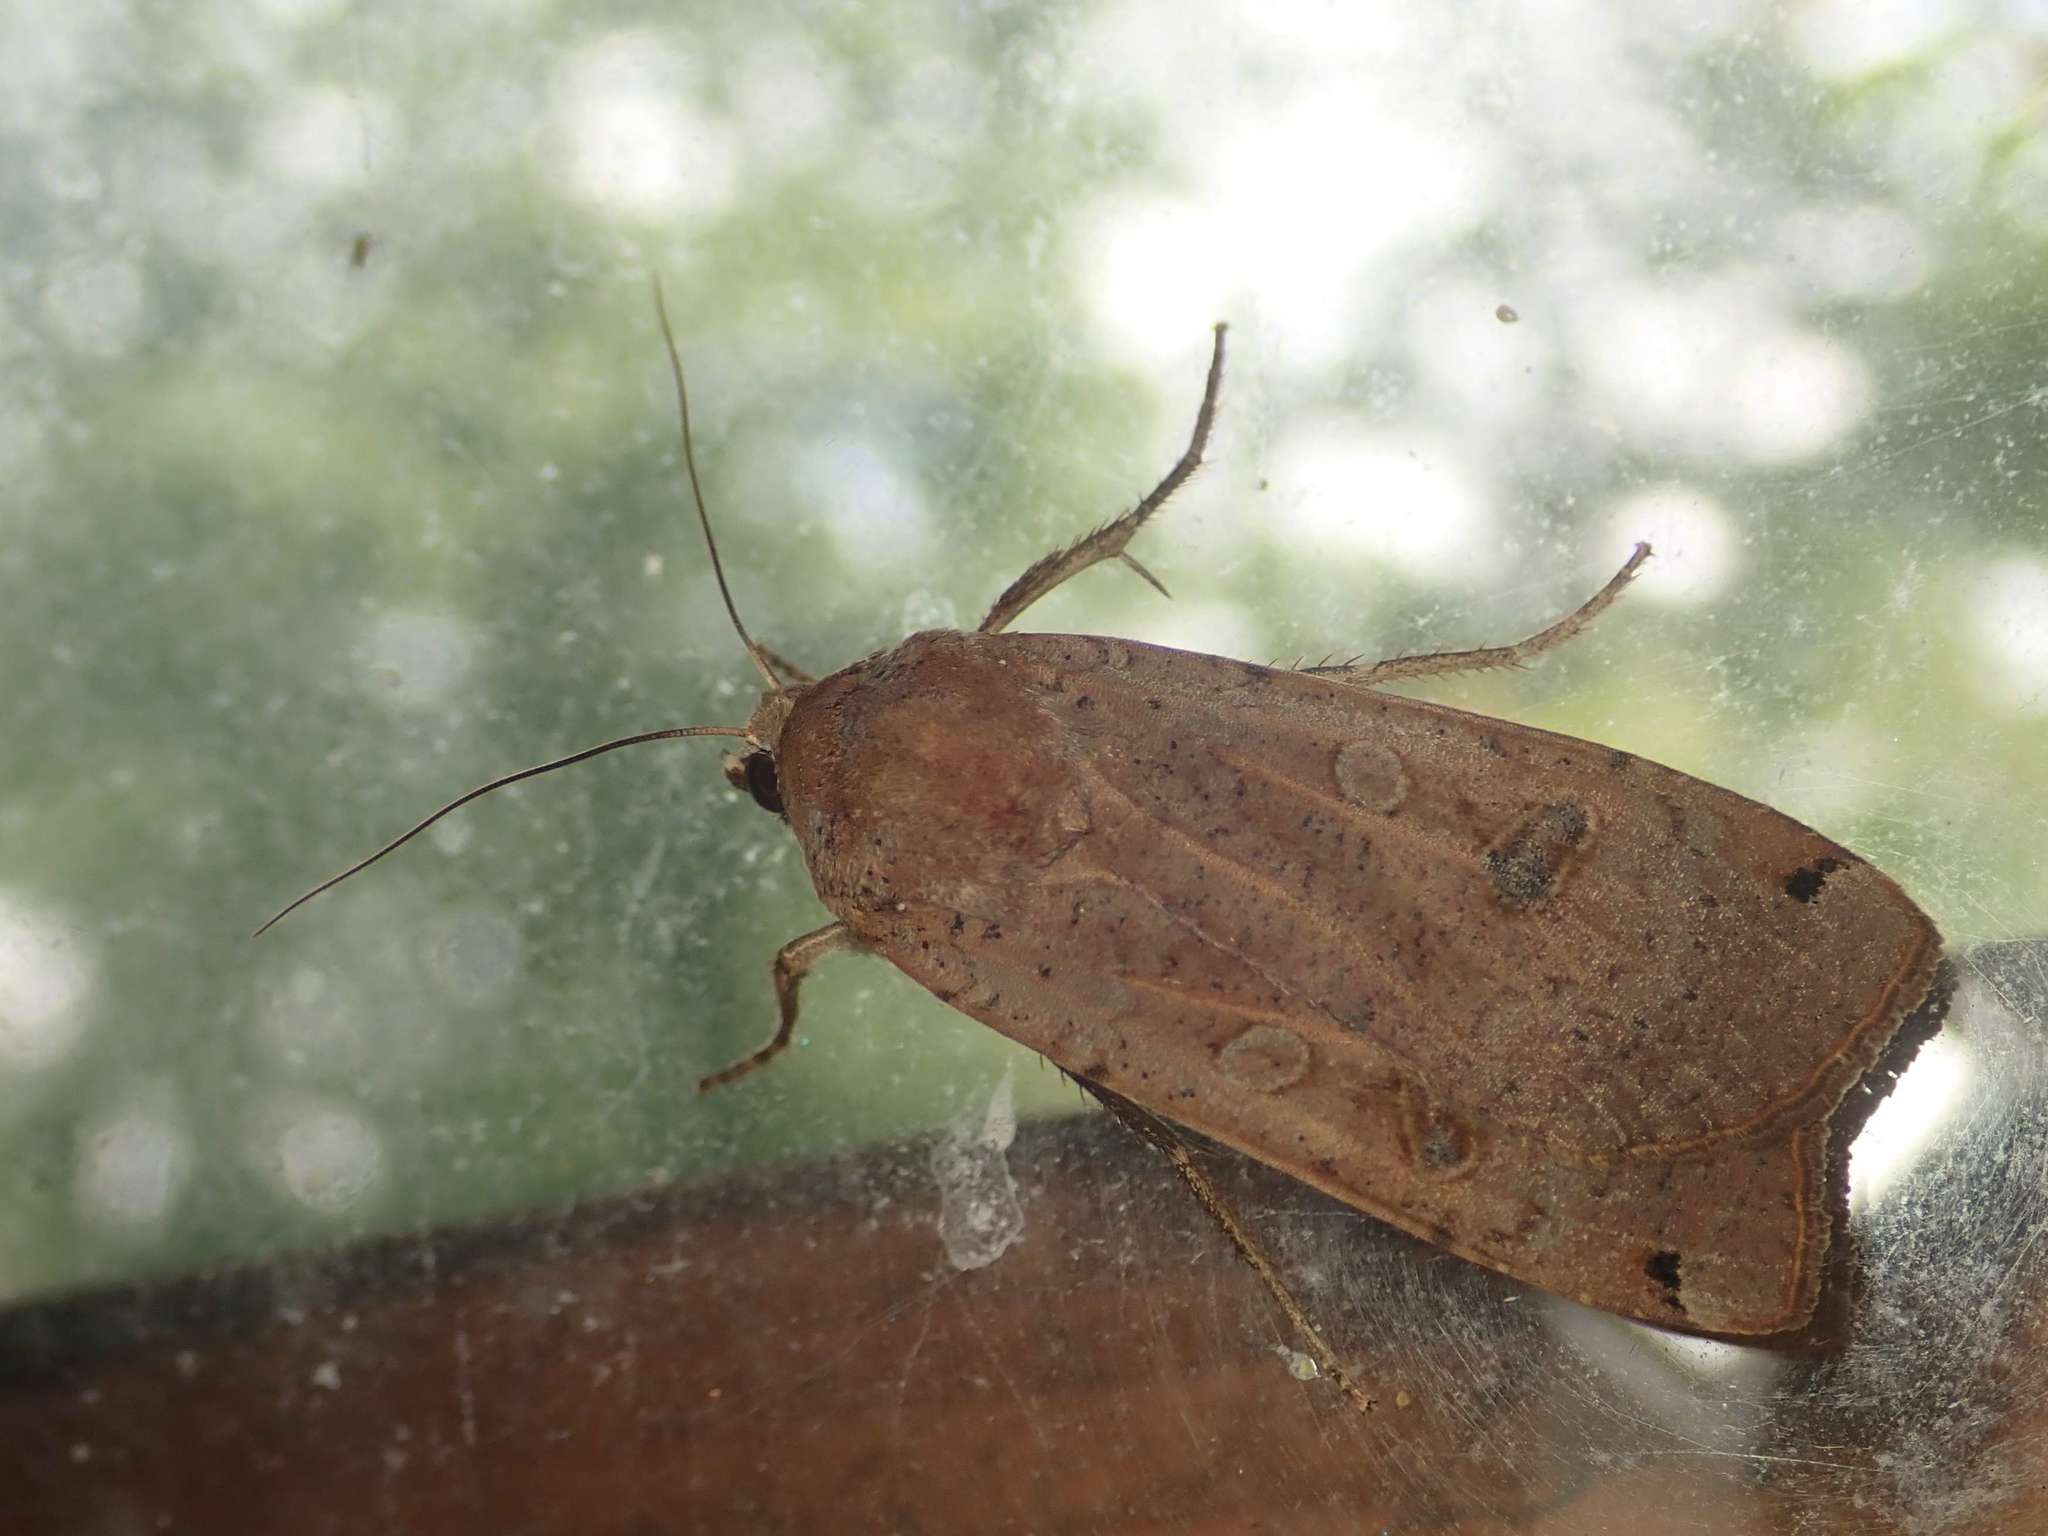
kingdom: Animalia
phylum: Arthropoda
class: Insecta
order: Lepidoptera
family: Noctuidae
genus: Noctua
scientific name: Noctua pronuba
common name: Large yellow underwing
